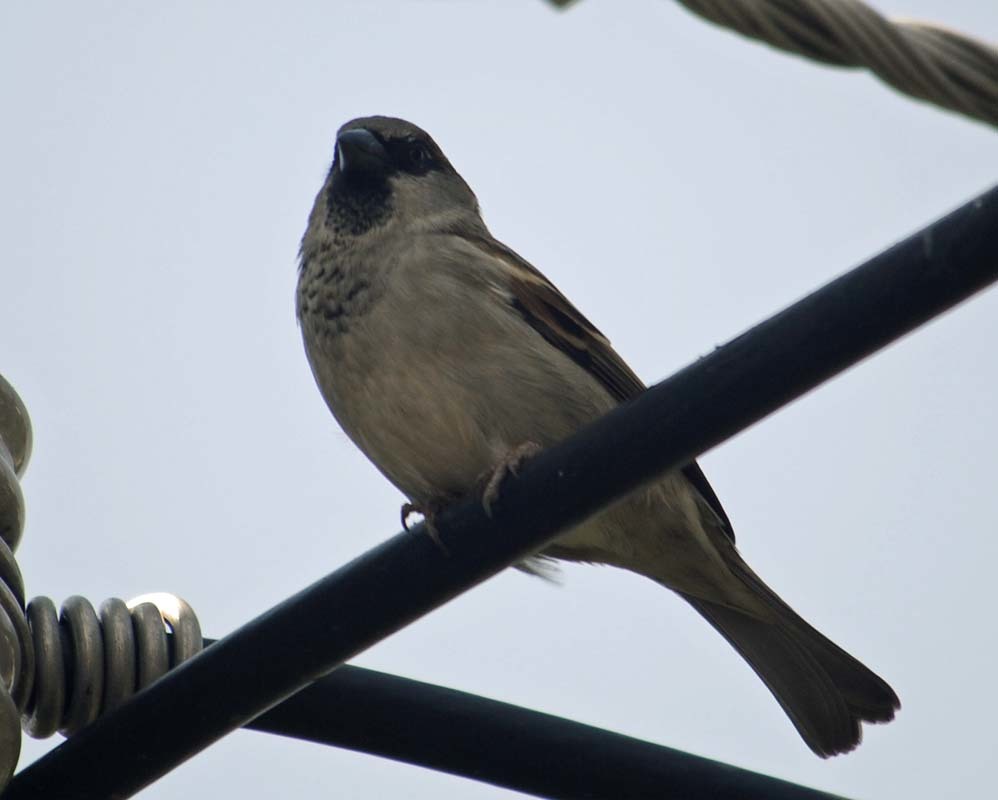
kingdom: Animalia
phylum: Chordata
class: Aves
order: Passeriformes
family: Passeridae
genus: Passer
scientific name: Passer domesticus
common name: House sparrow
